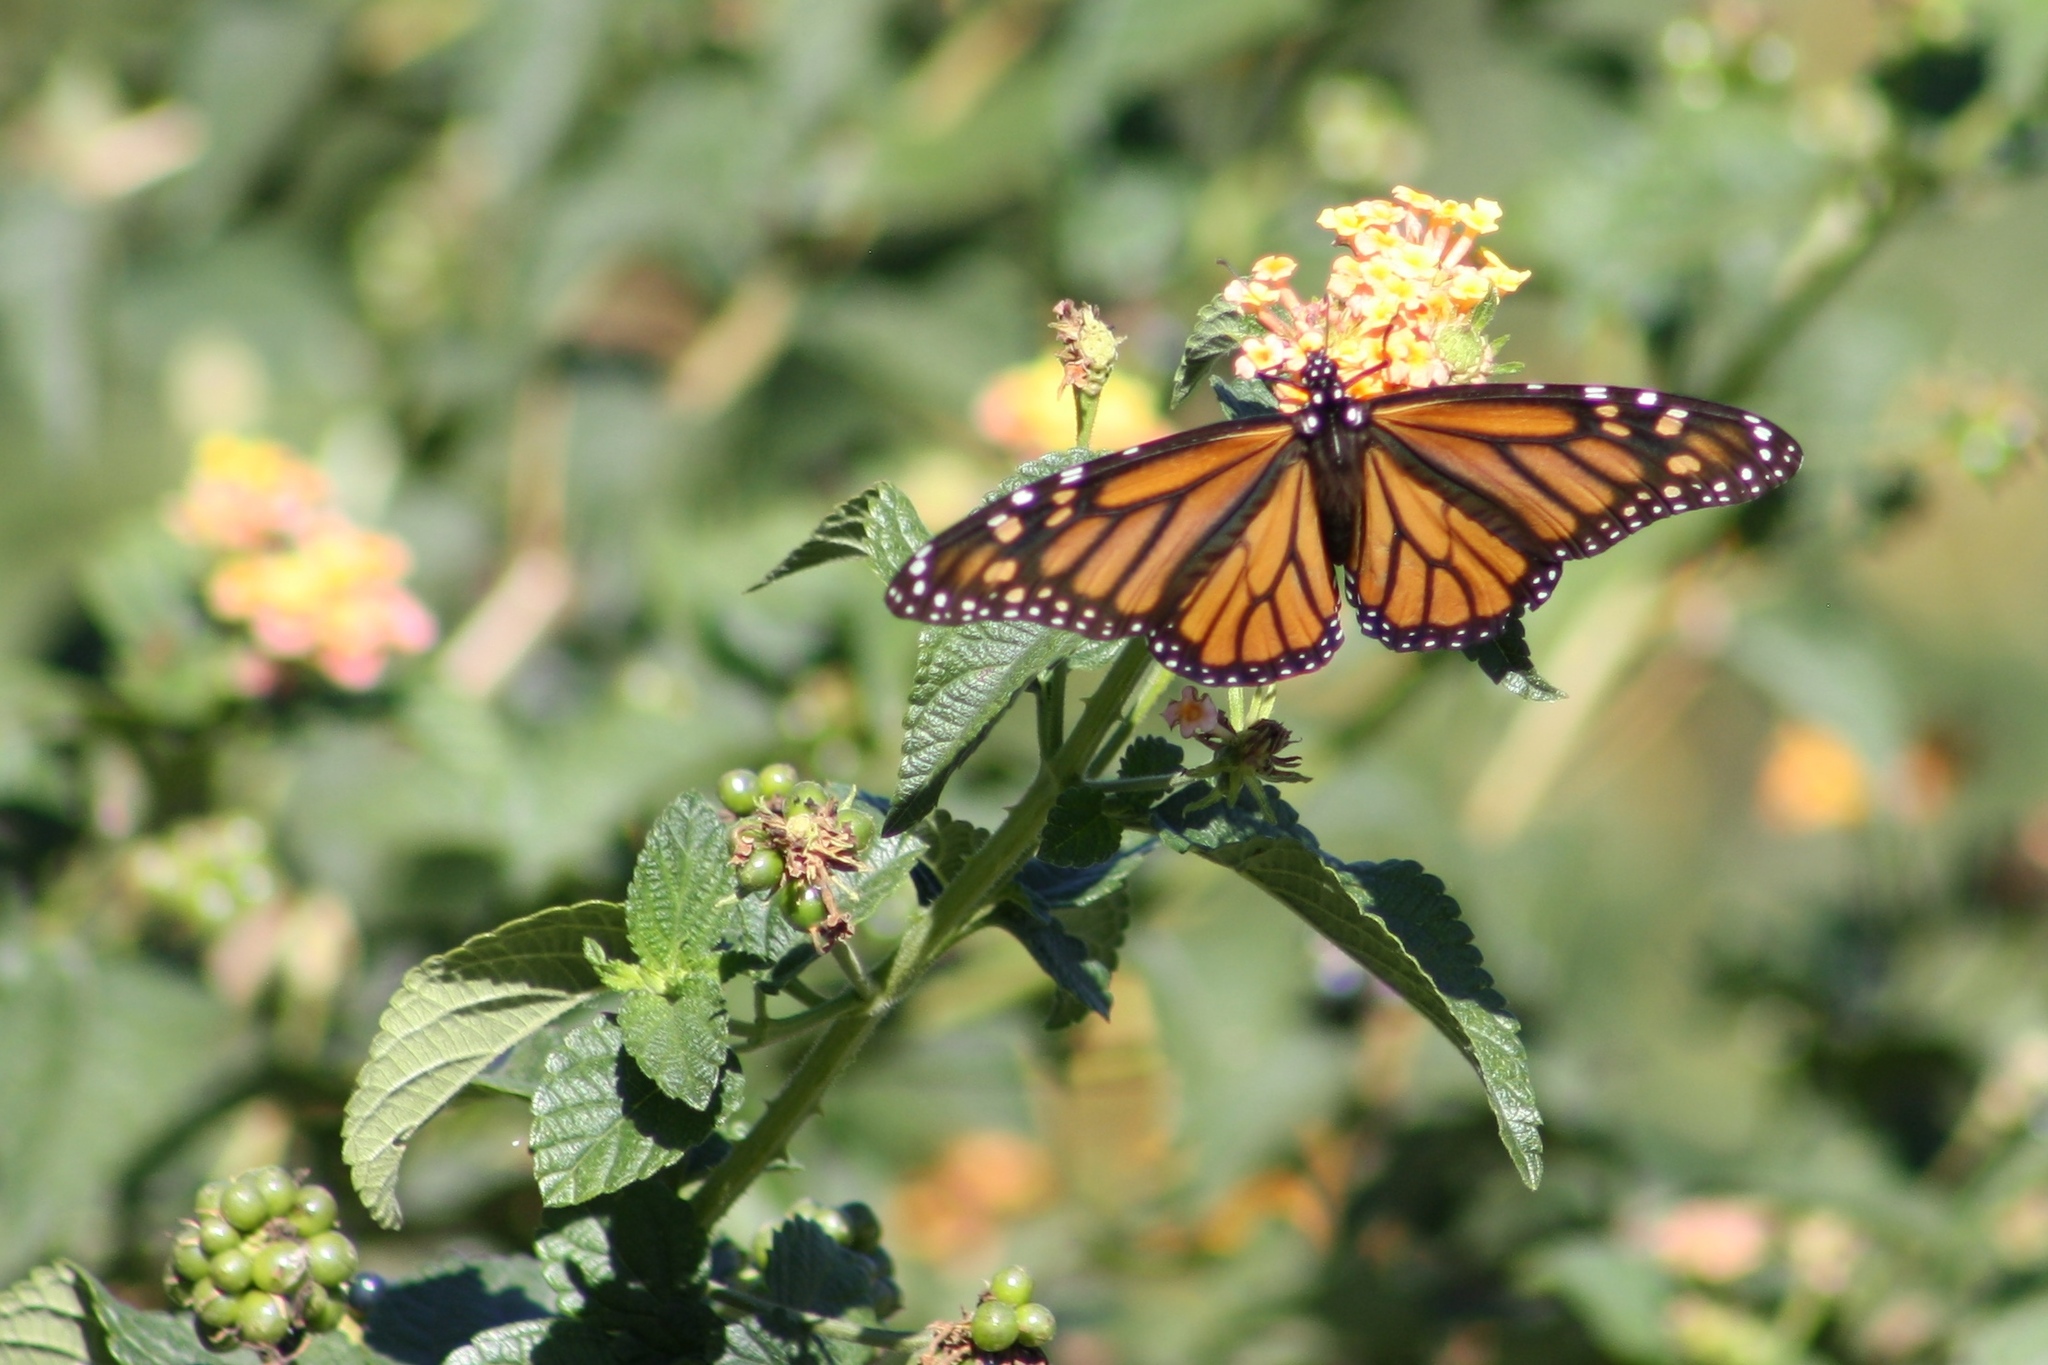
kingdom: Animalia
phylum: Arthropoda
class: Insecta
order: Lepidoptera
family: Nymphalidae
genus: Danaus
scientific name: Danaus plexippus
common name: Monarch
